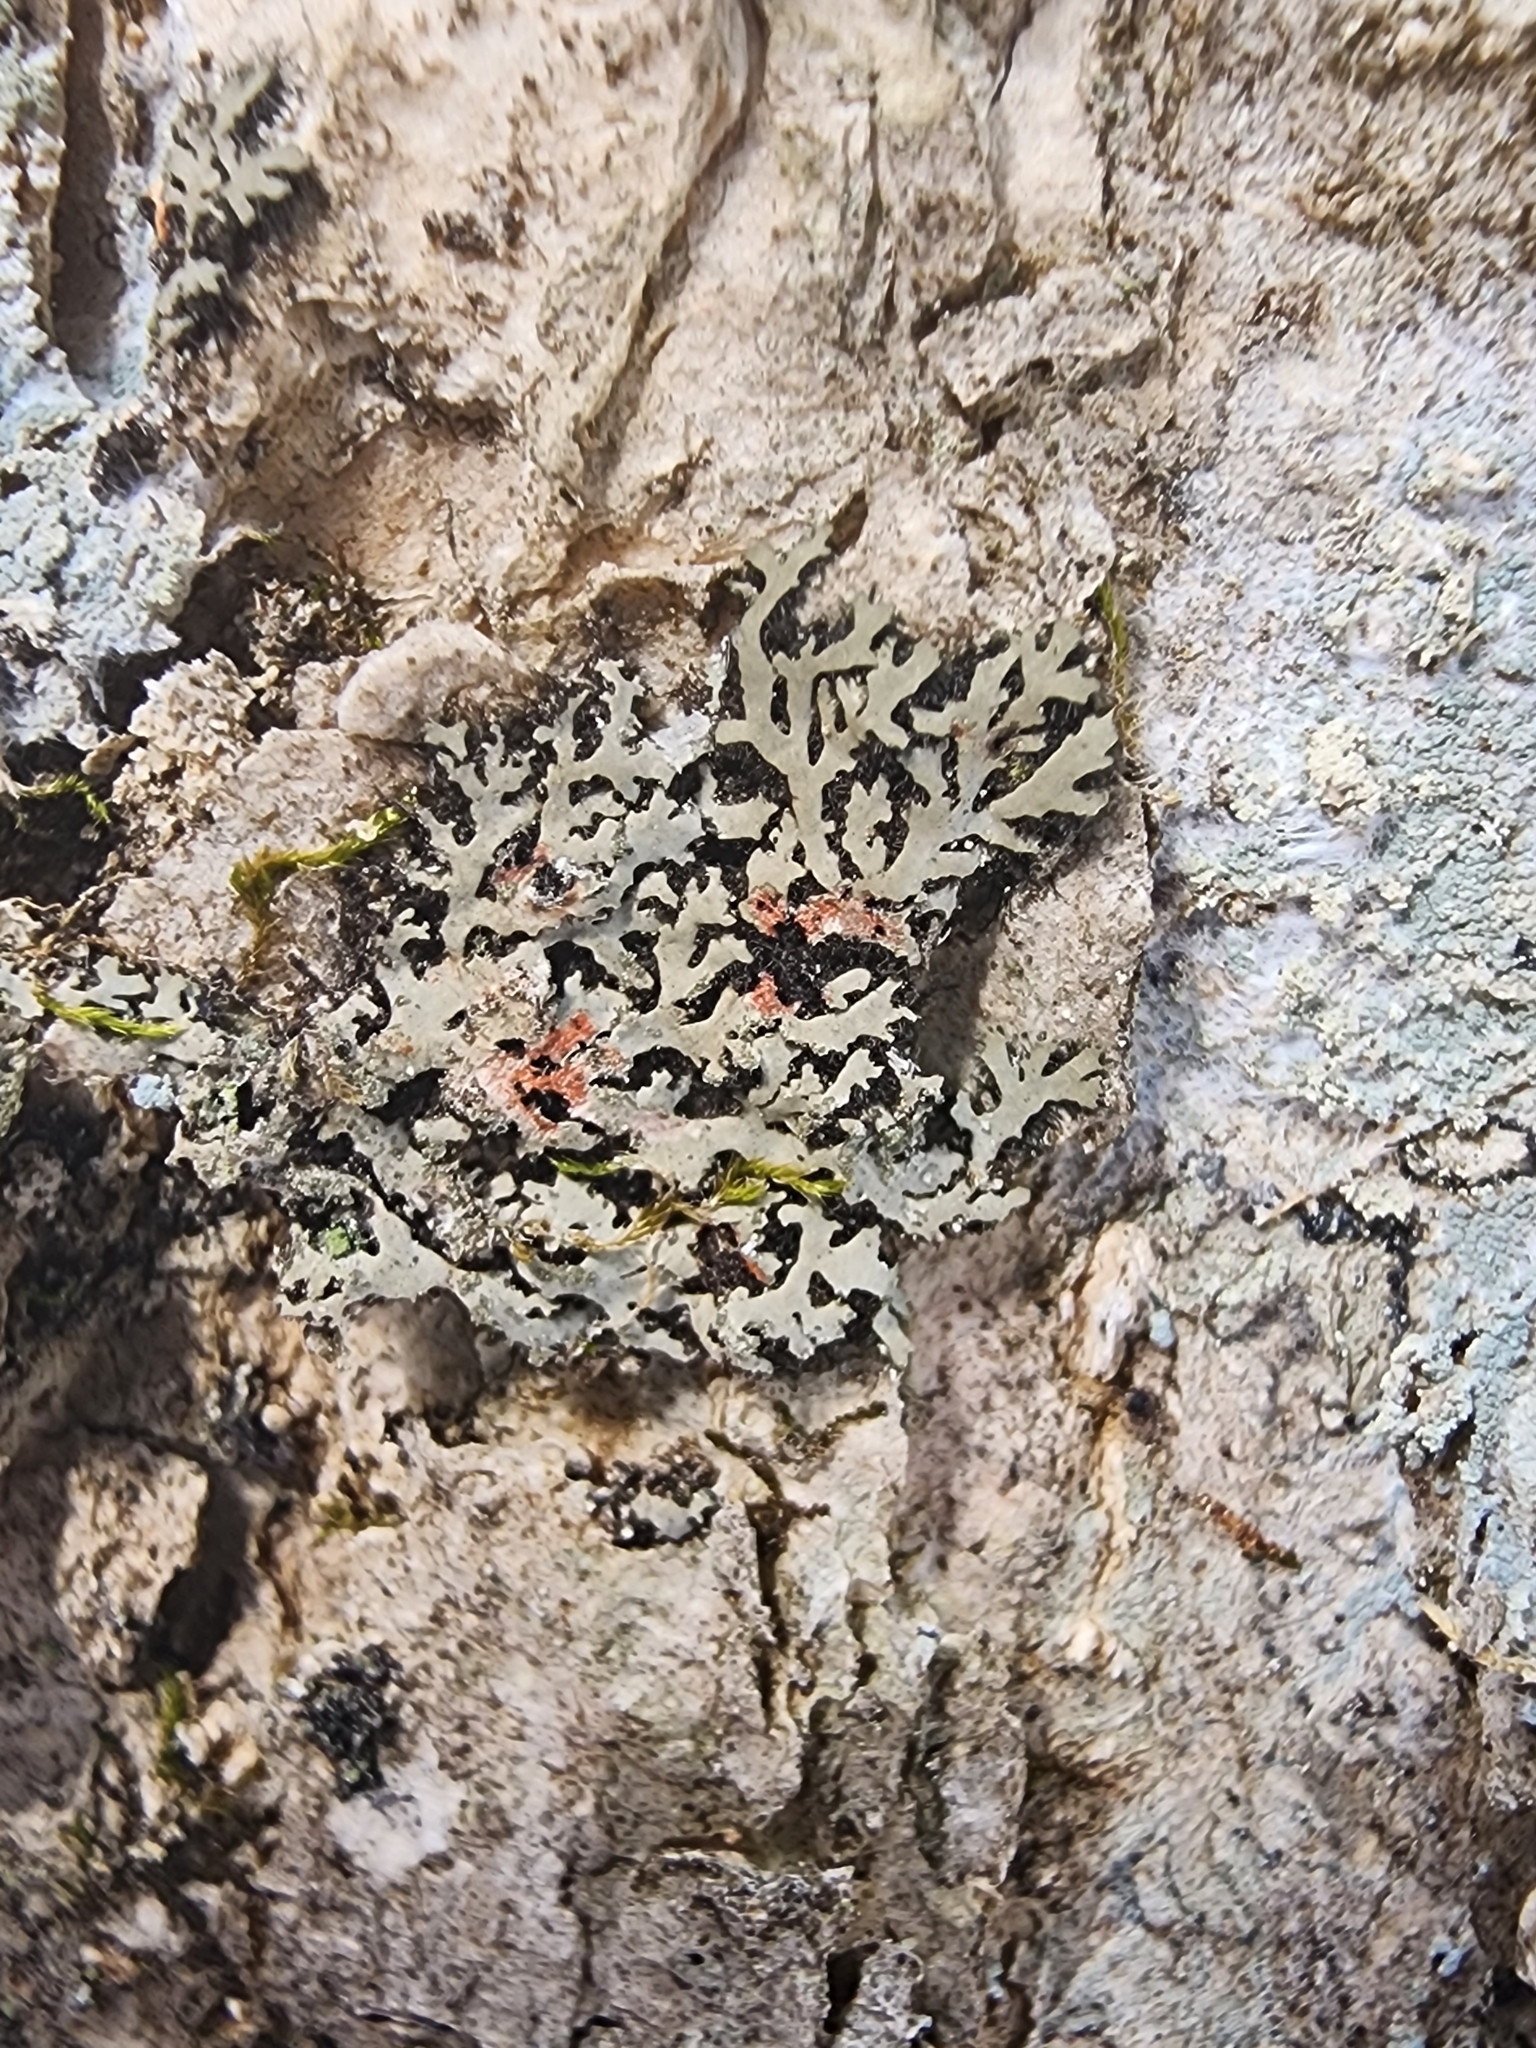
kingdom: Fungi
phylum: Ascomycota
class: Lecanoromycetes
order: Caliciales
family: Physciaceae
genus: Phaeophyscia
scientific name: Phaeophyscia rubropulchra
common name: Orange-cored shadow lichen
